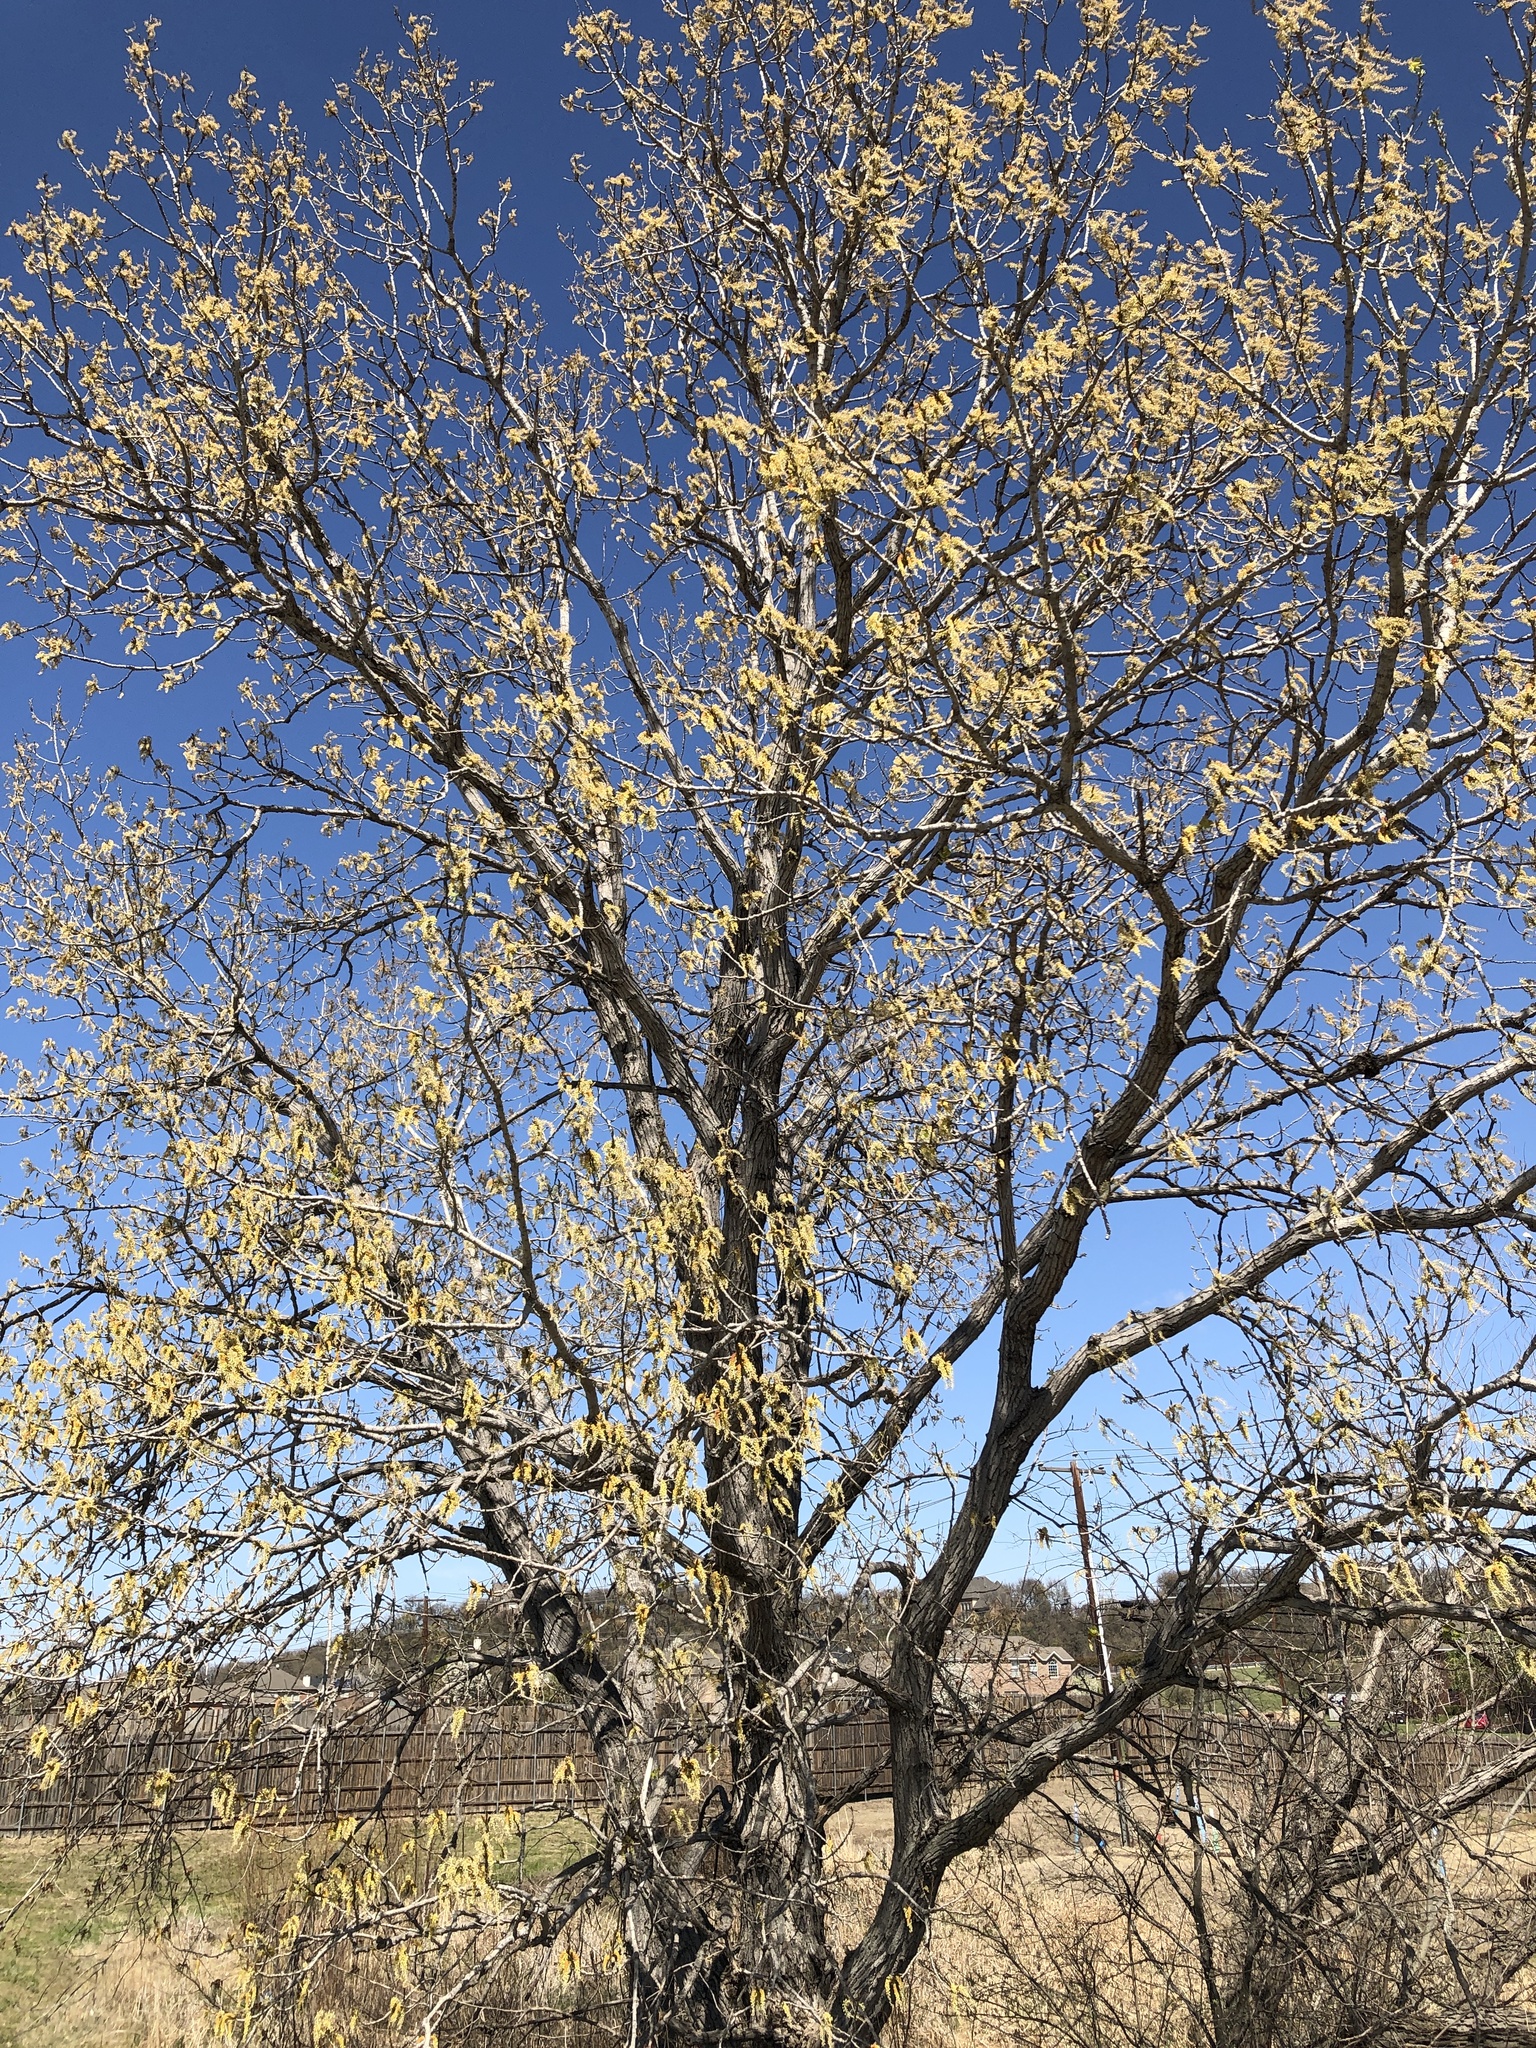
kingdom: Plantae
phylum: Tracheophyta
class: Magnoliopsida
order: Malpighiales
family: Salicaceae
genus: Populus
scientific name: Populus deltoides
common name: Eastern cottonwood
